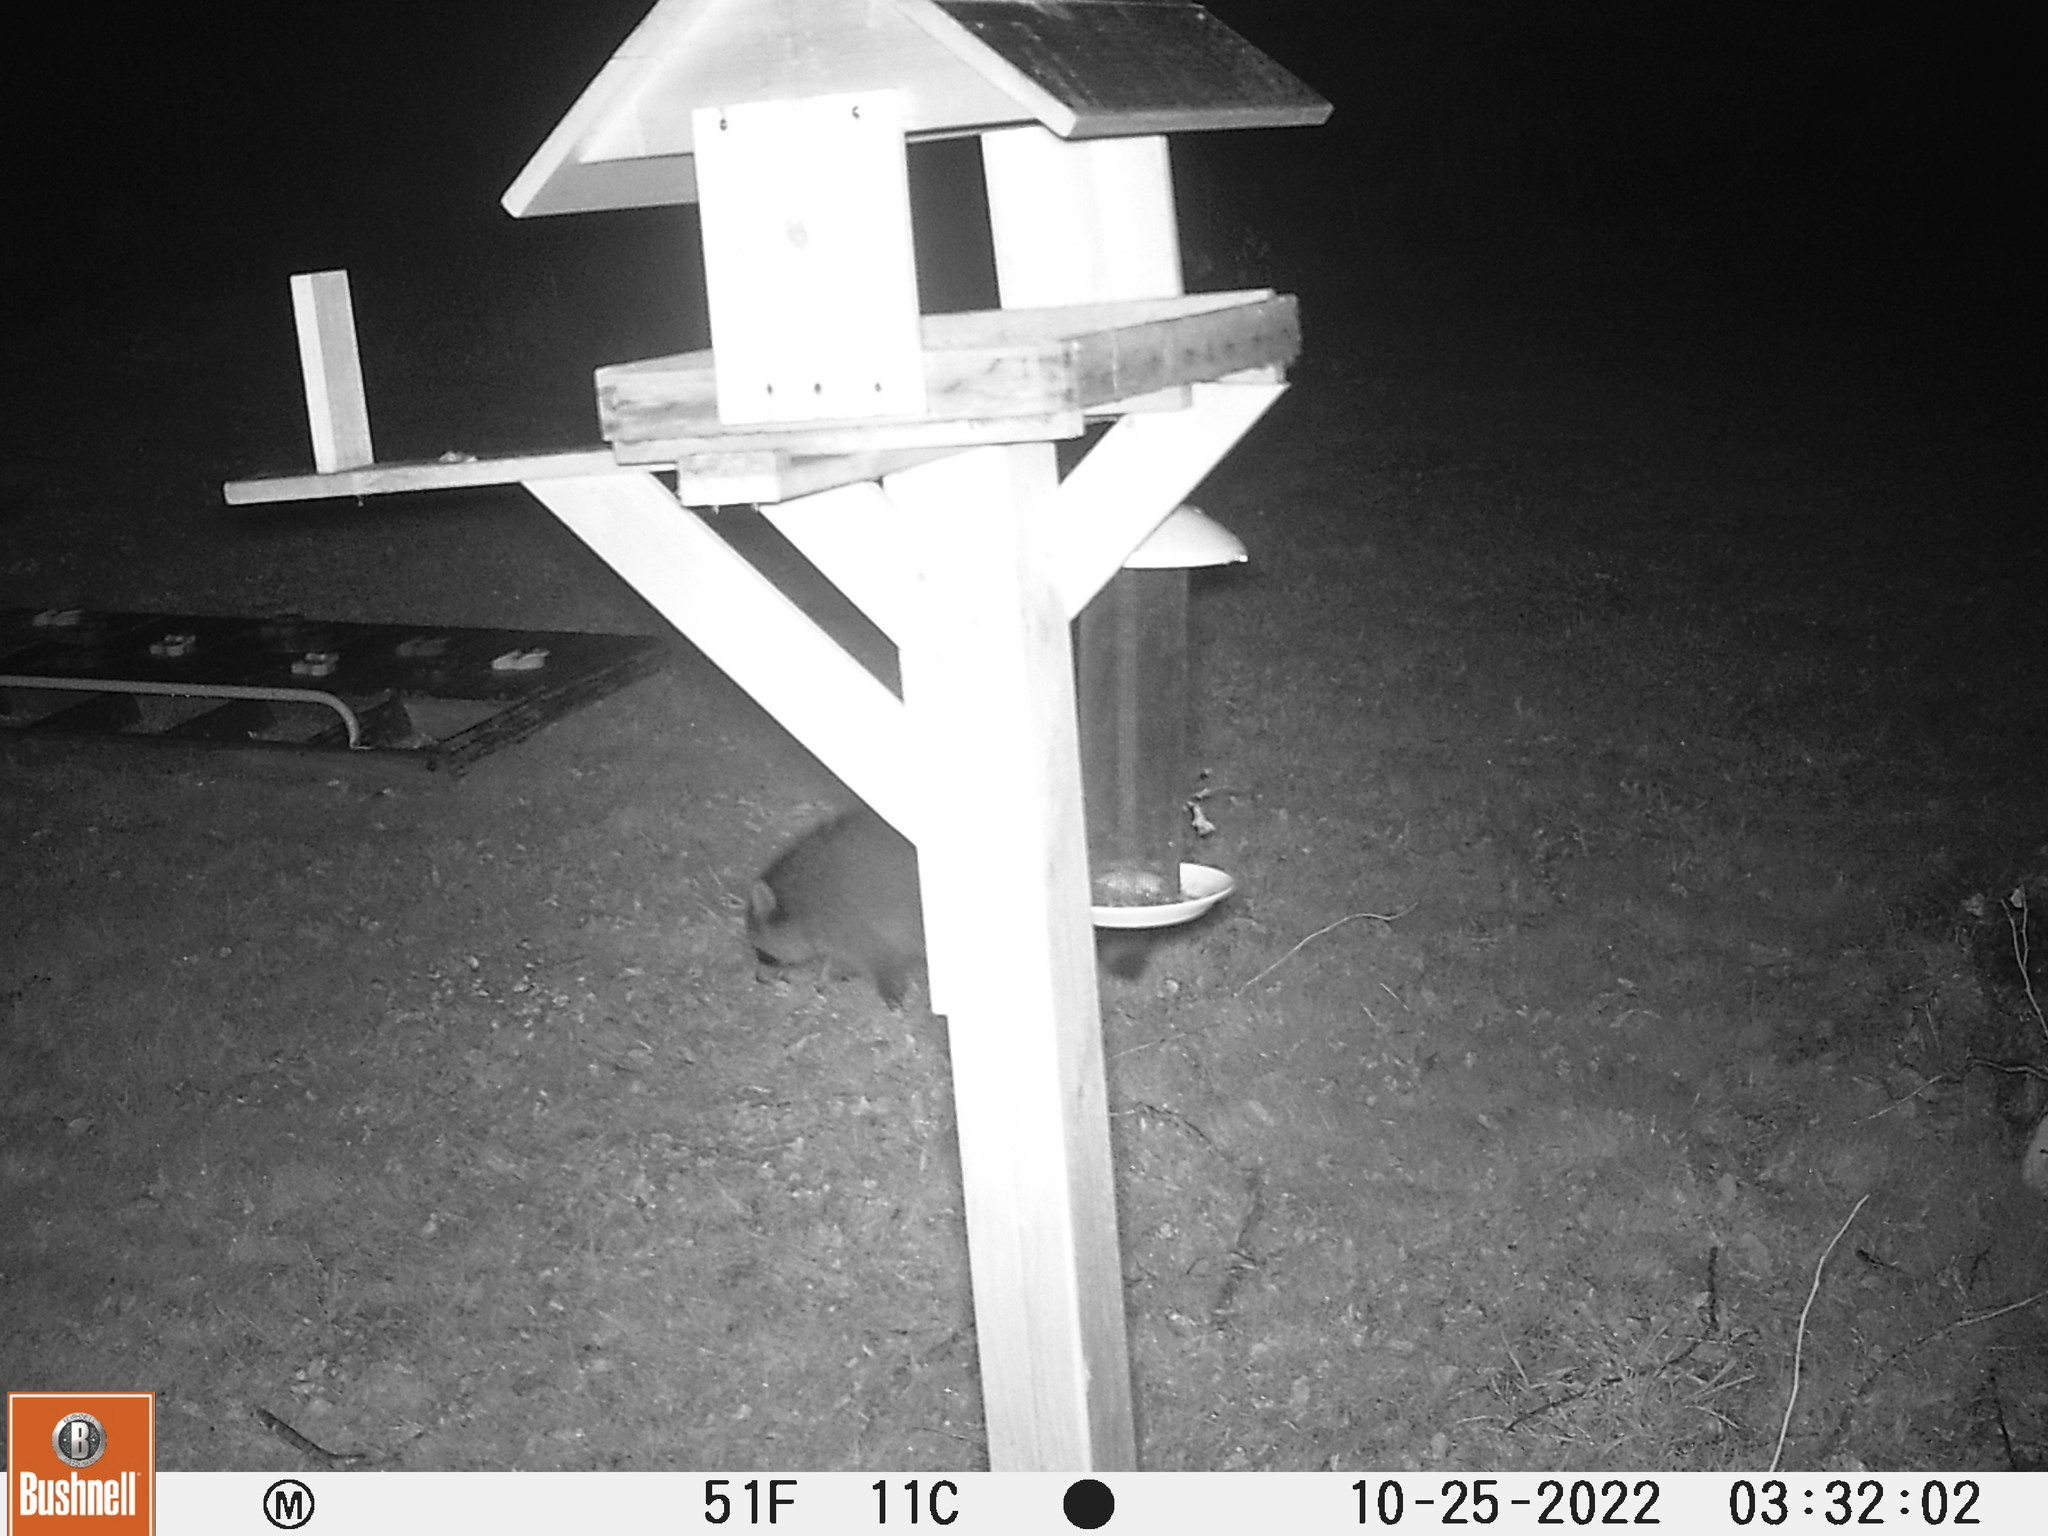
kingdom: Animalia
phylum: Chordata
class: Mammalia
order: Carnivora
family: Procyonidae
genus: Procyon
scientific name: Procyon lotor
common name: Raccoon
